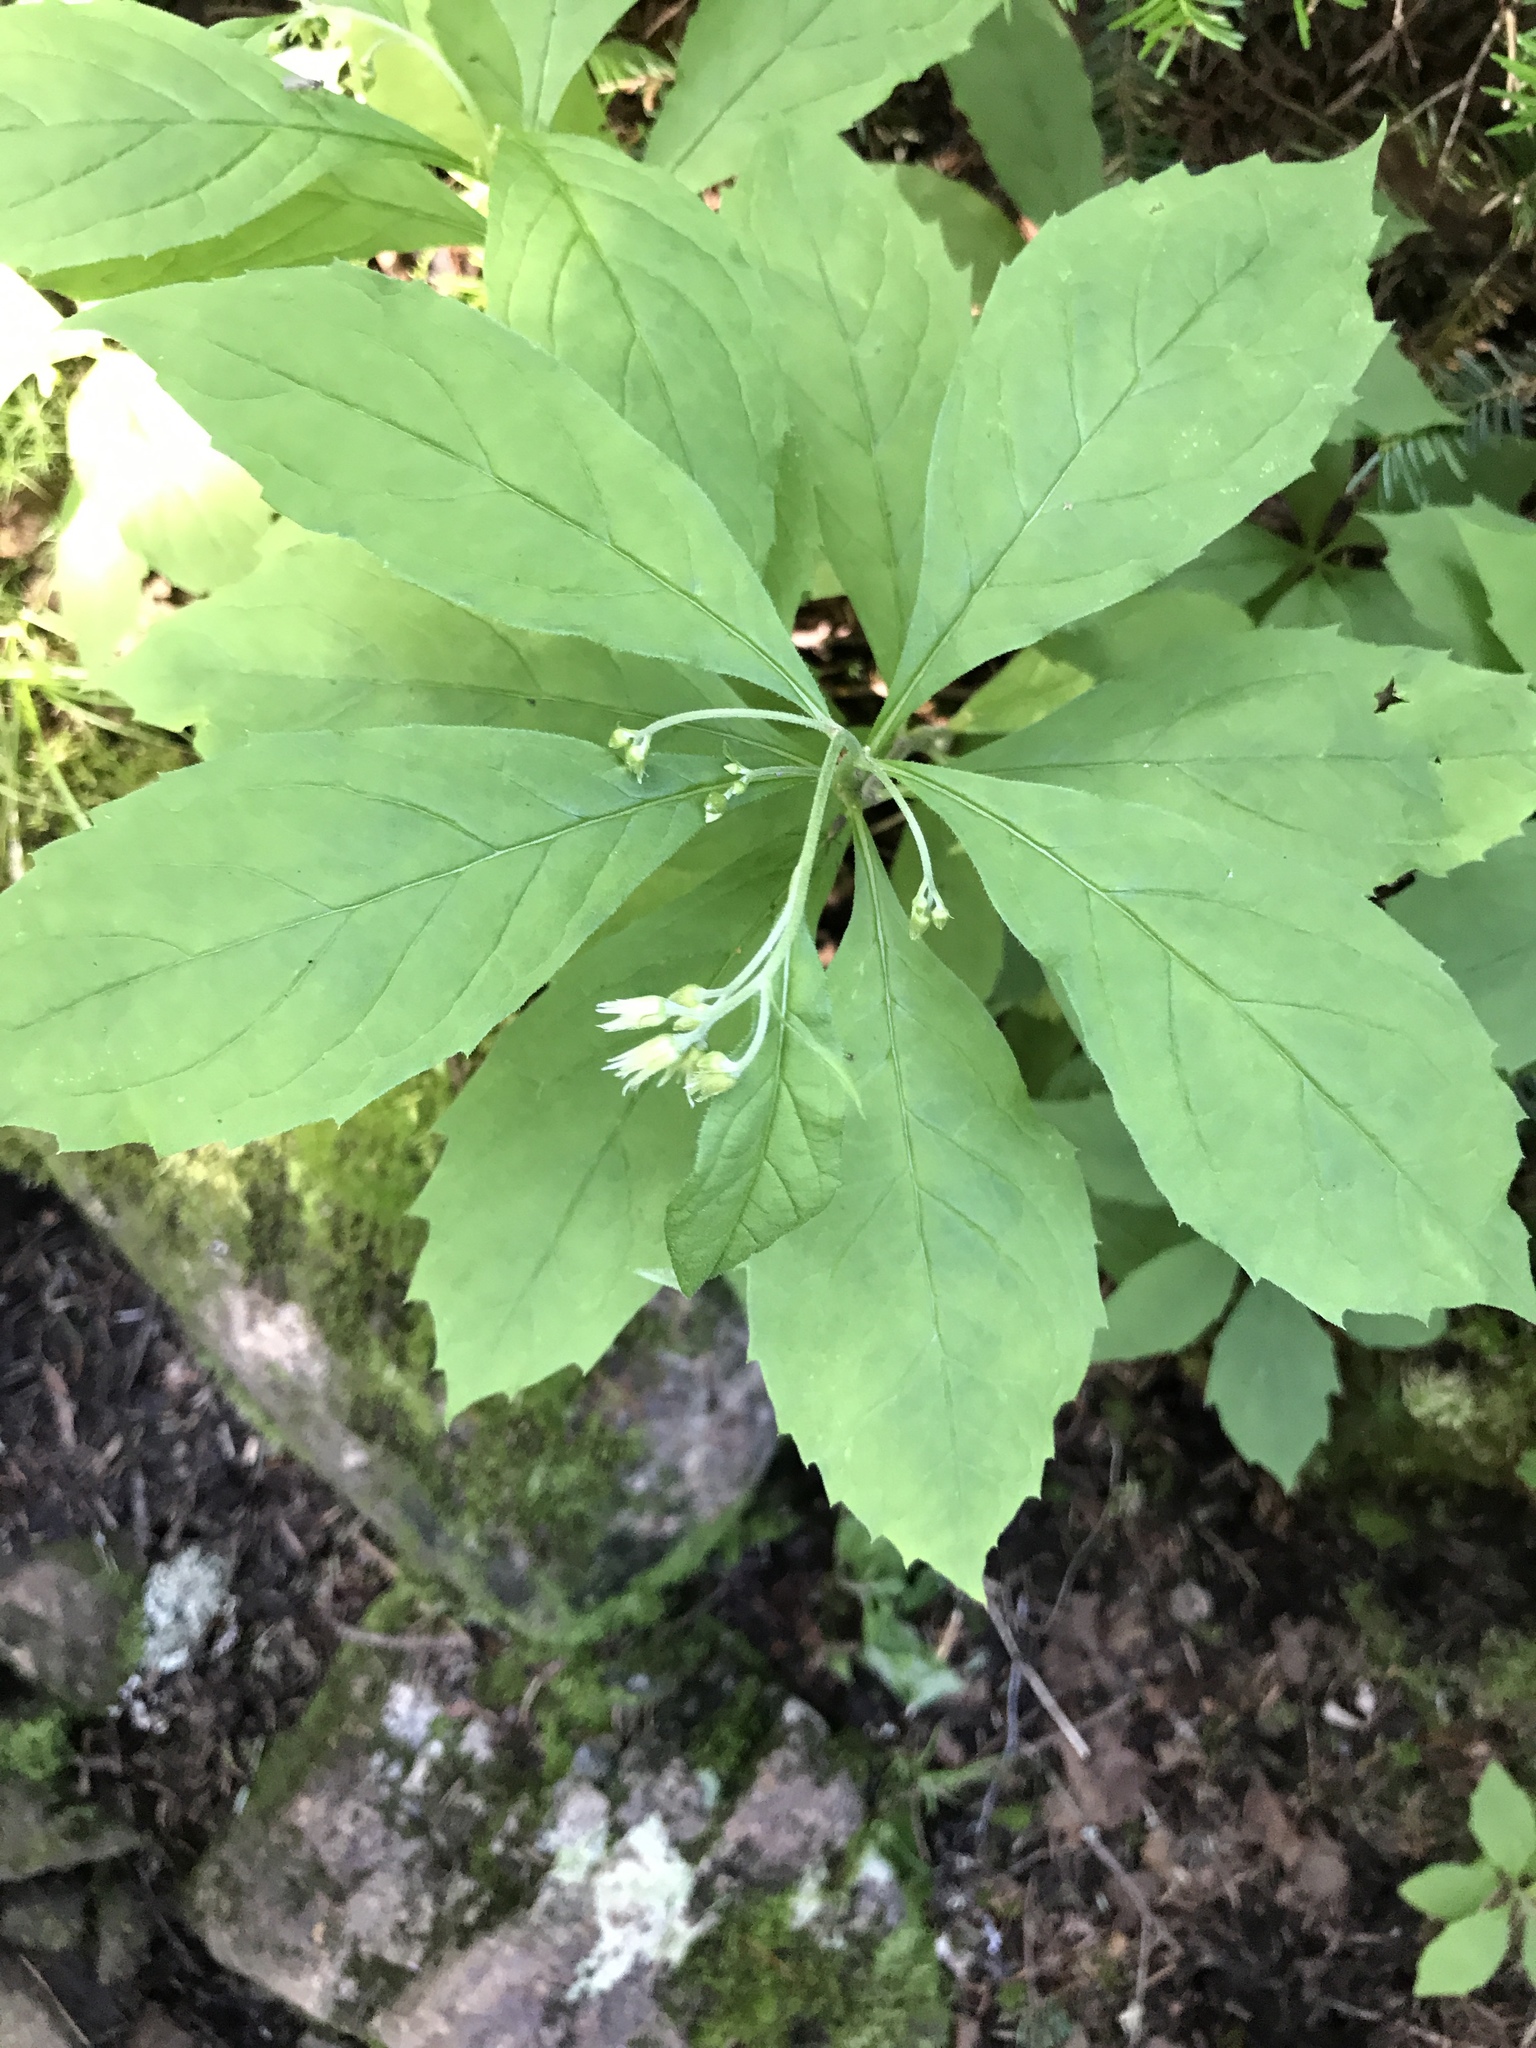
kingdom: Plantae
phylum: Tracheophyta
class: Magnoliopsida
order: Asterales
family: Asteraceae
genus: Oclemena
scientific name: Oclemena acuminata
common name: Mountain aster
